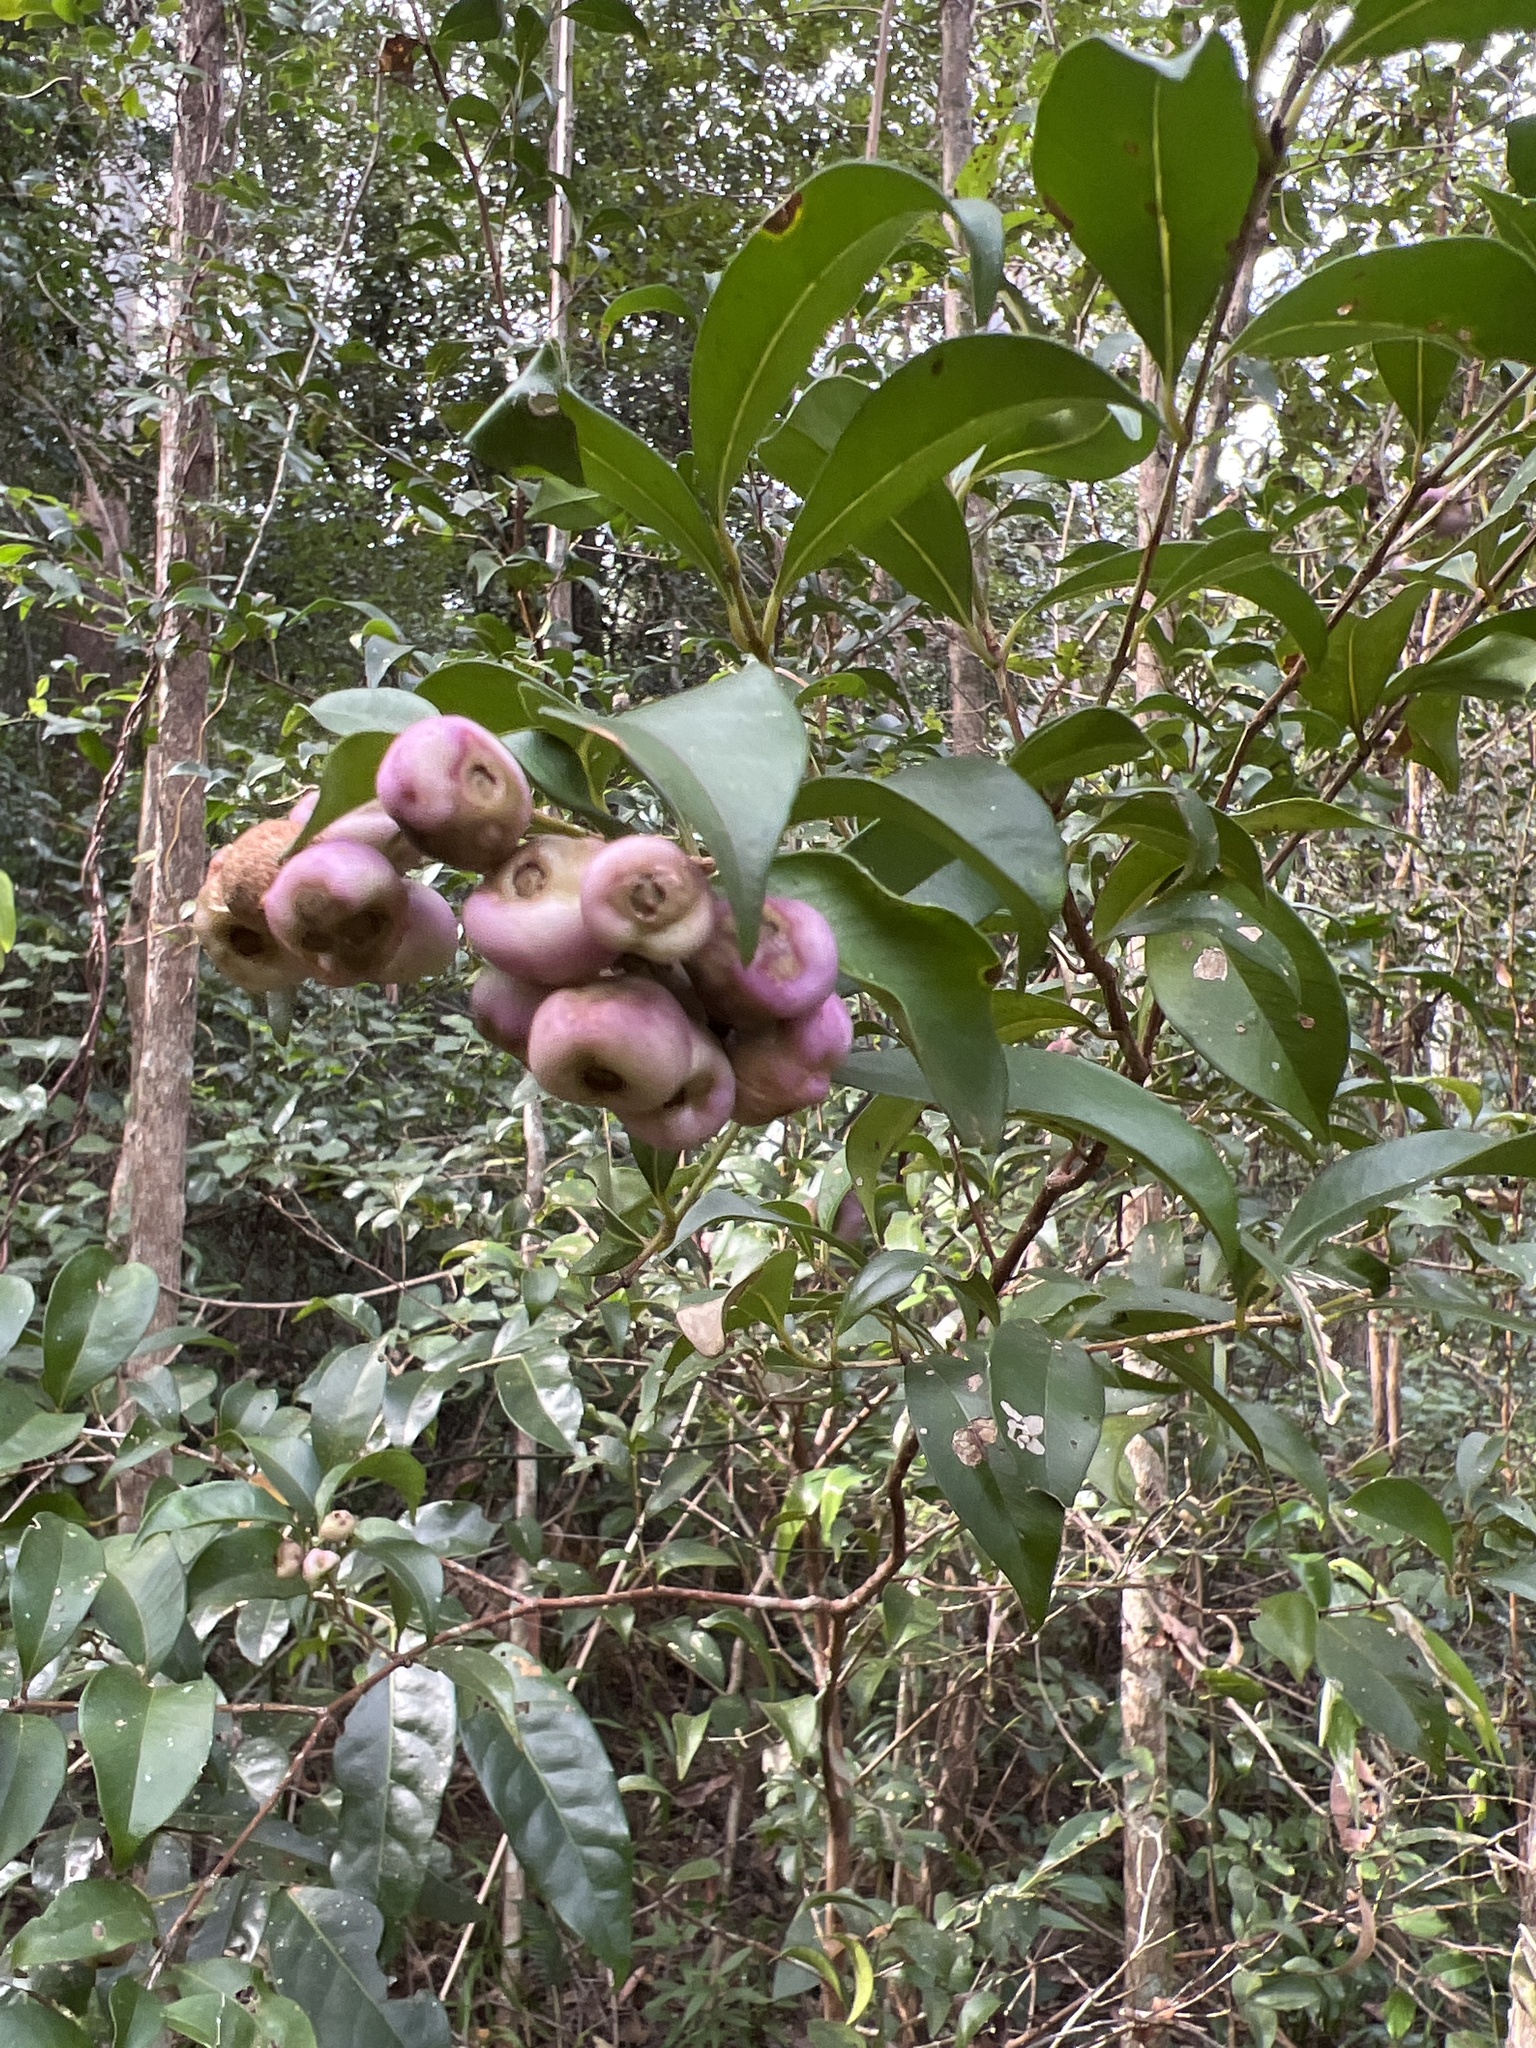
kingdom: Plantae
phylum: Tracheophyta
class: Magnoliopsida
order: Myrtales
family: Myrtaceae
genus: Syzygium
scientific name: Syzygium smithii
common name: Lilly-pilly
